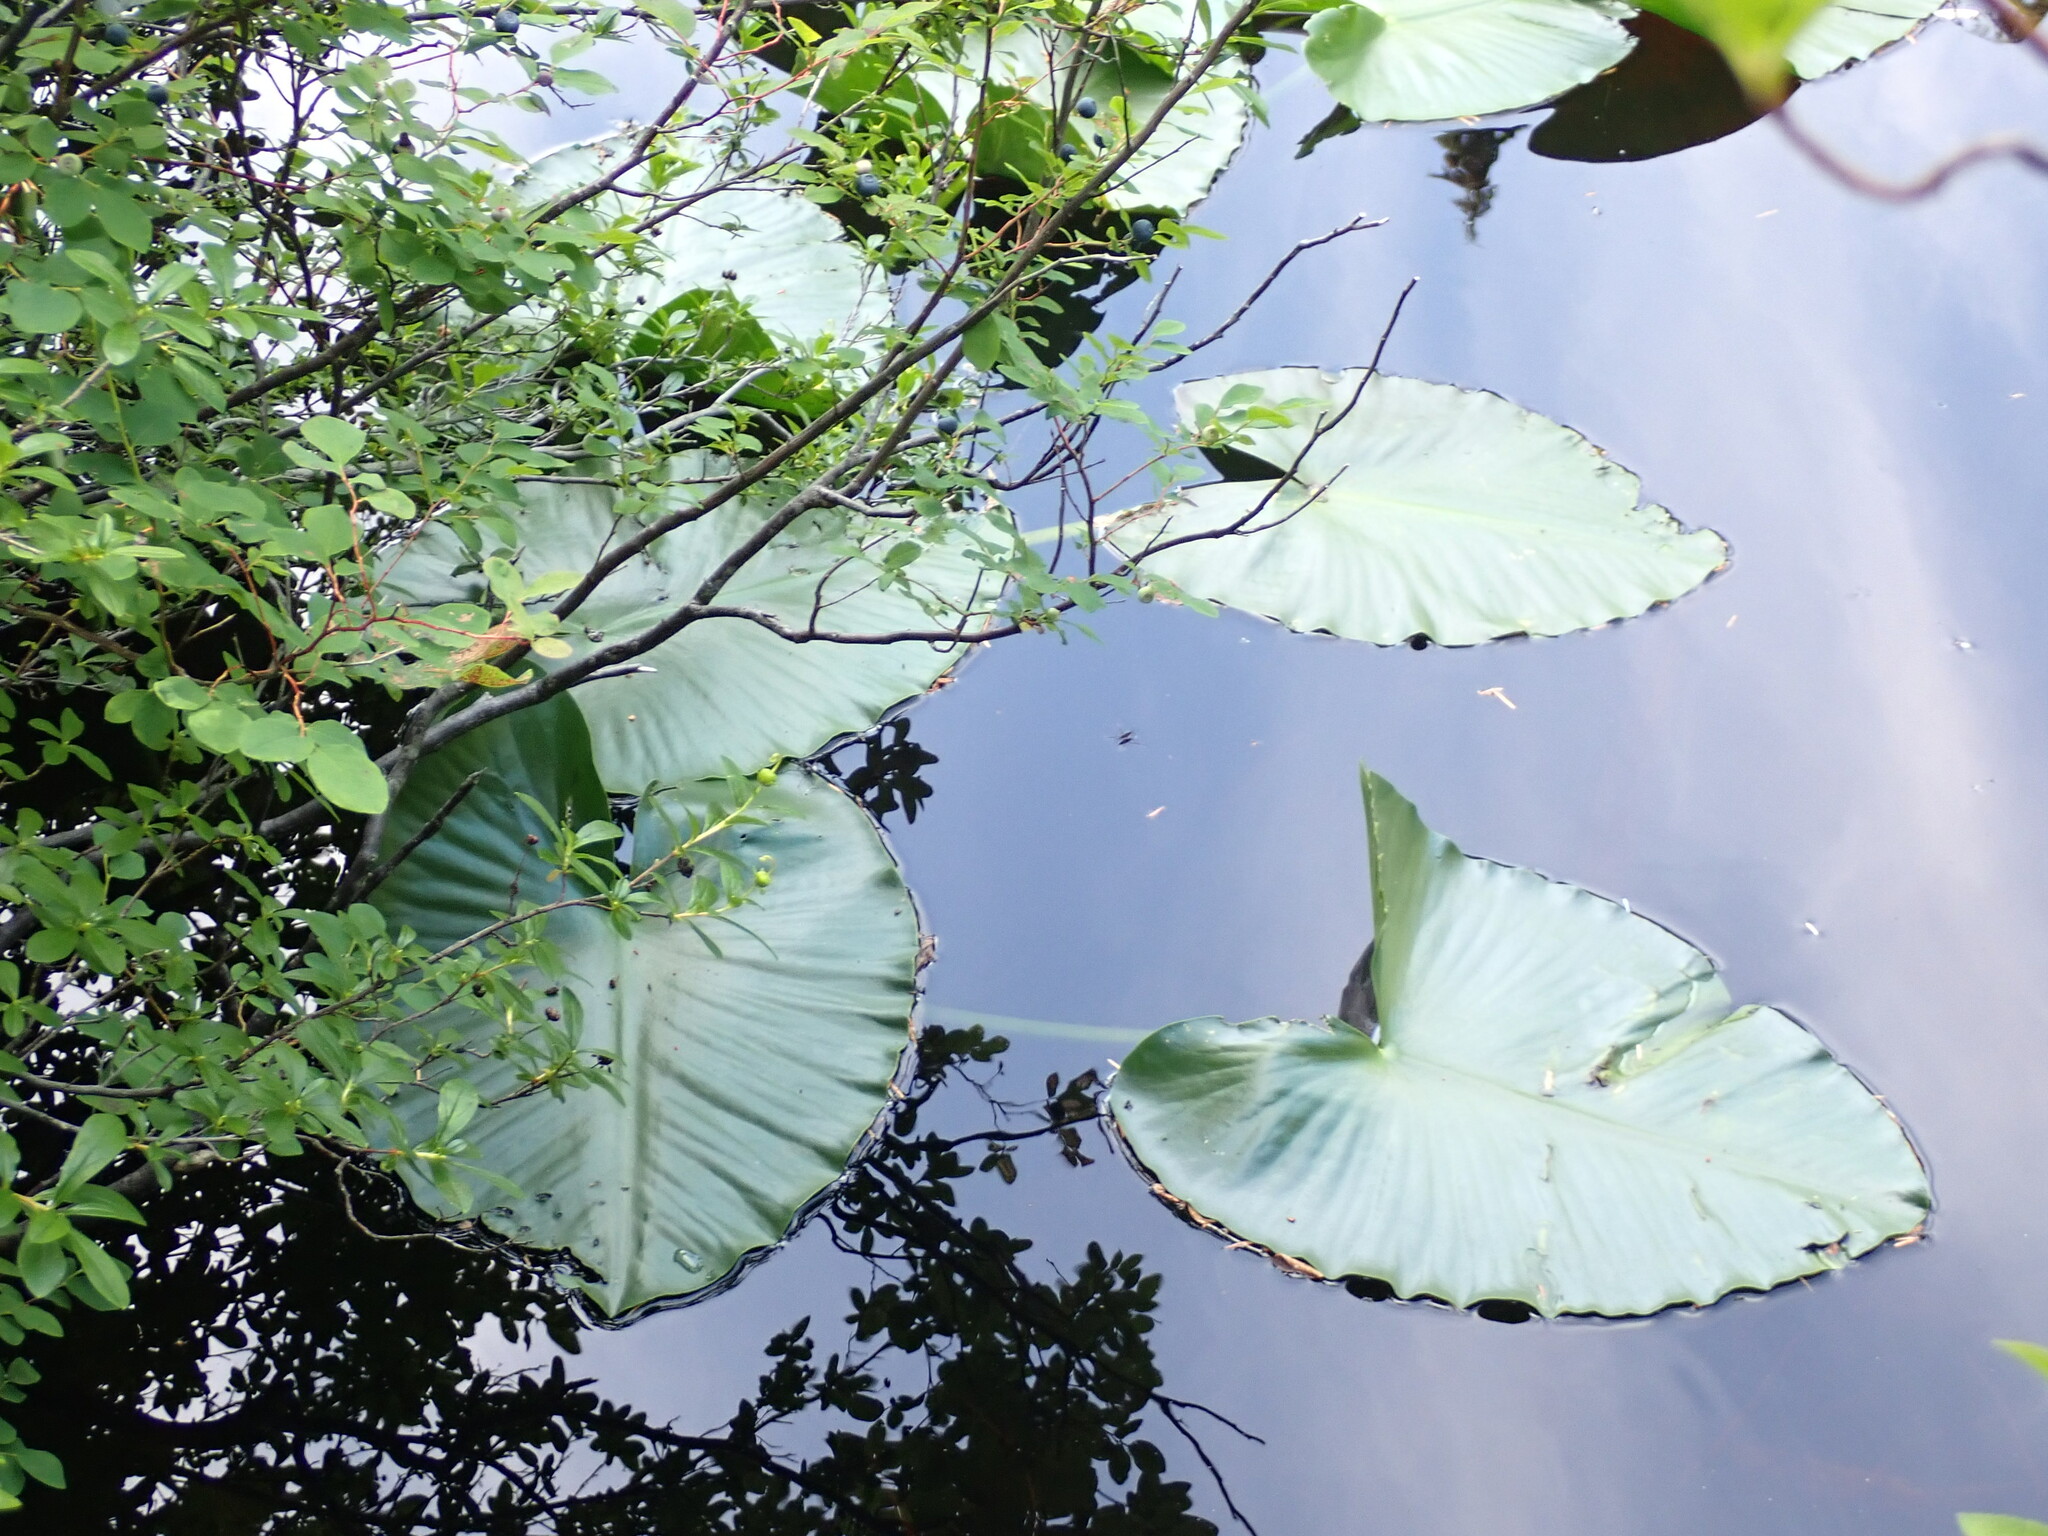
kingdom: Plantae
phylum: Tracheophyta
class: Magnoliopsida
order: Nymphaeales
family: Nymphaeaceae
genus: Nuphar
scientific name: Nuphar polysepala
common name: Rocky mountain cow-lily
